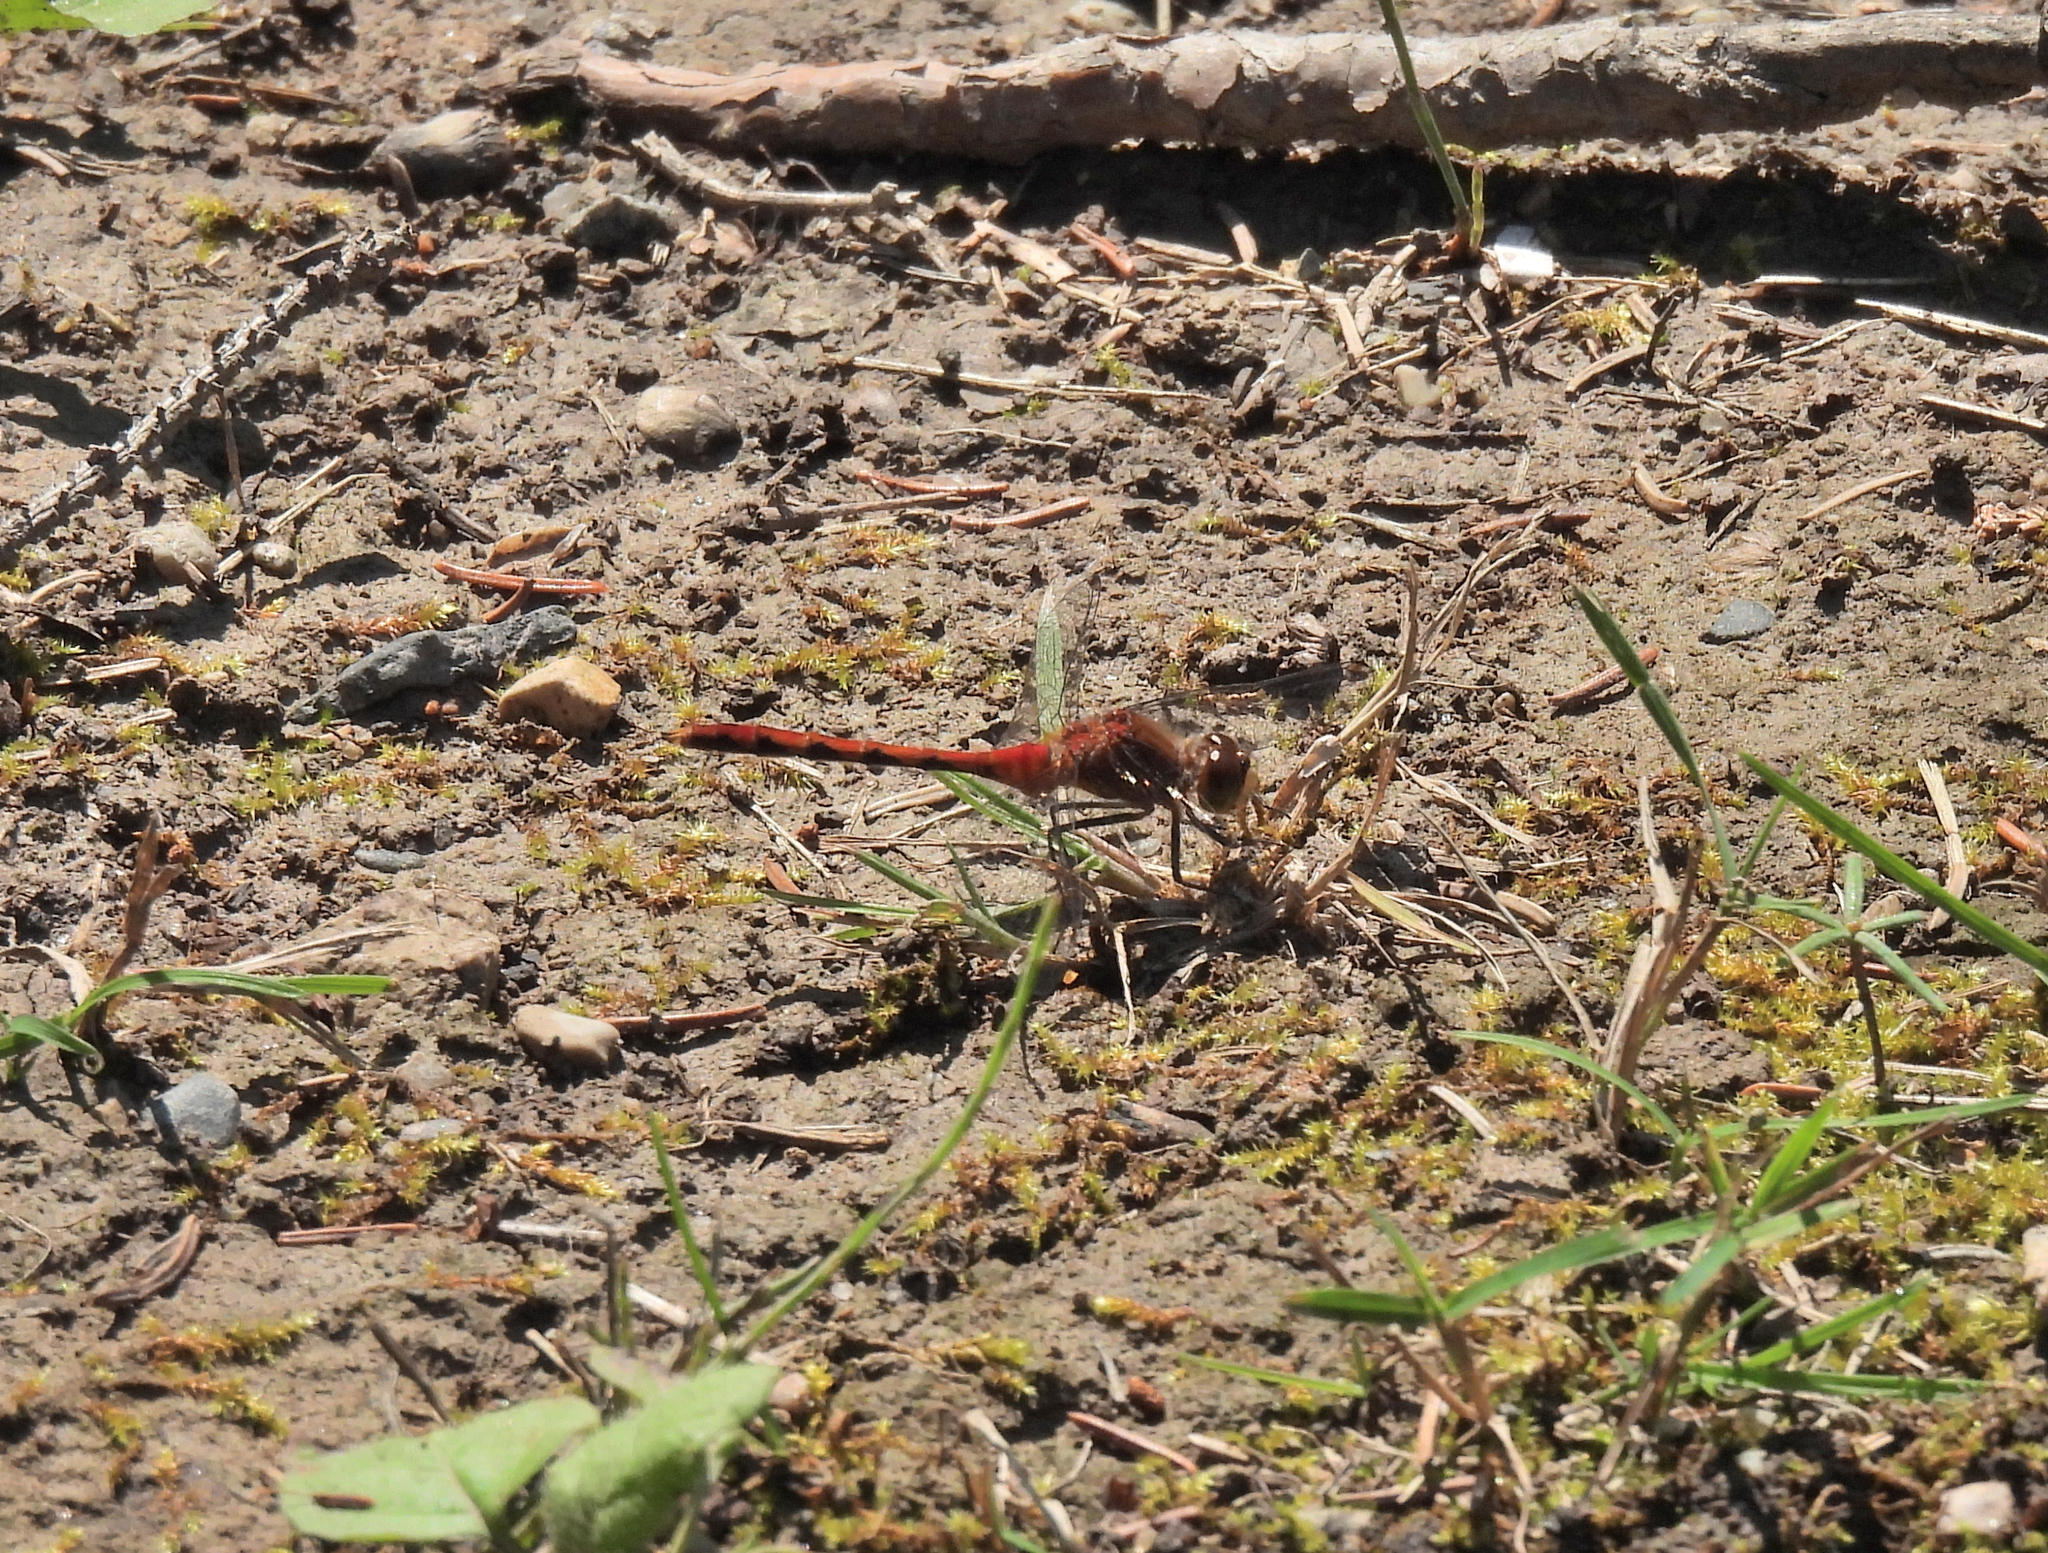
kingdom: Animalia
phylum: Arthropoda
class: Insecta
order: Odonata
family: Libellulidae
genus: Sympetrum
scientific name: Sympetrum obtrusum
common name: White-faced meadowhawk
